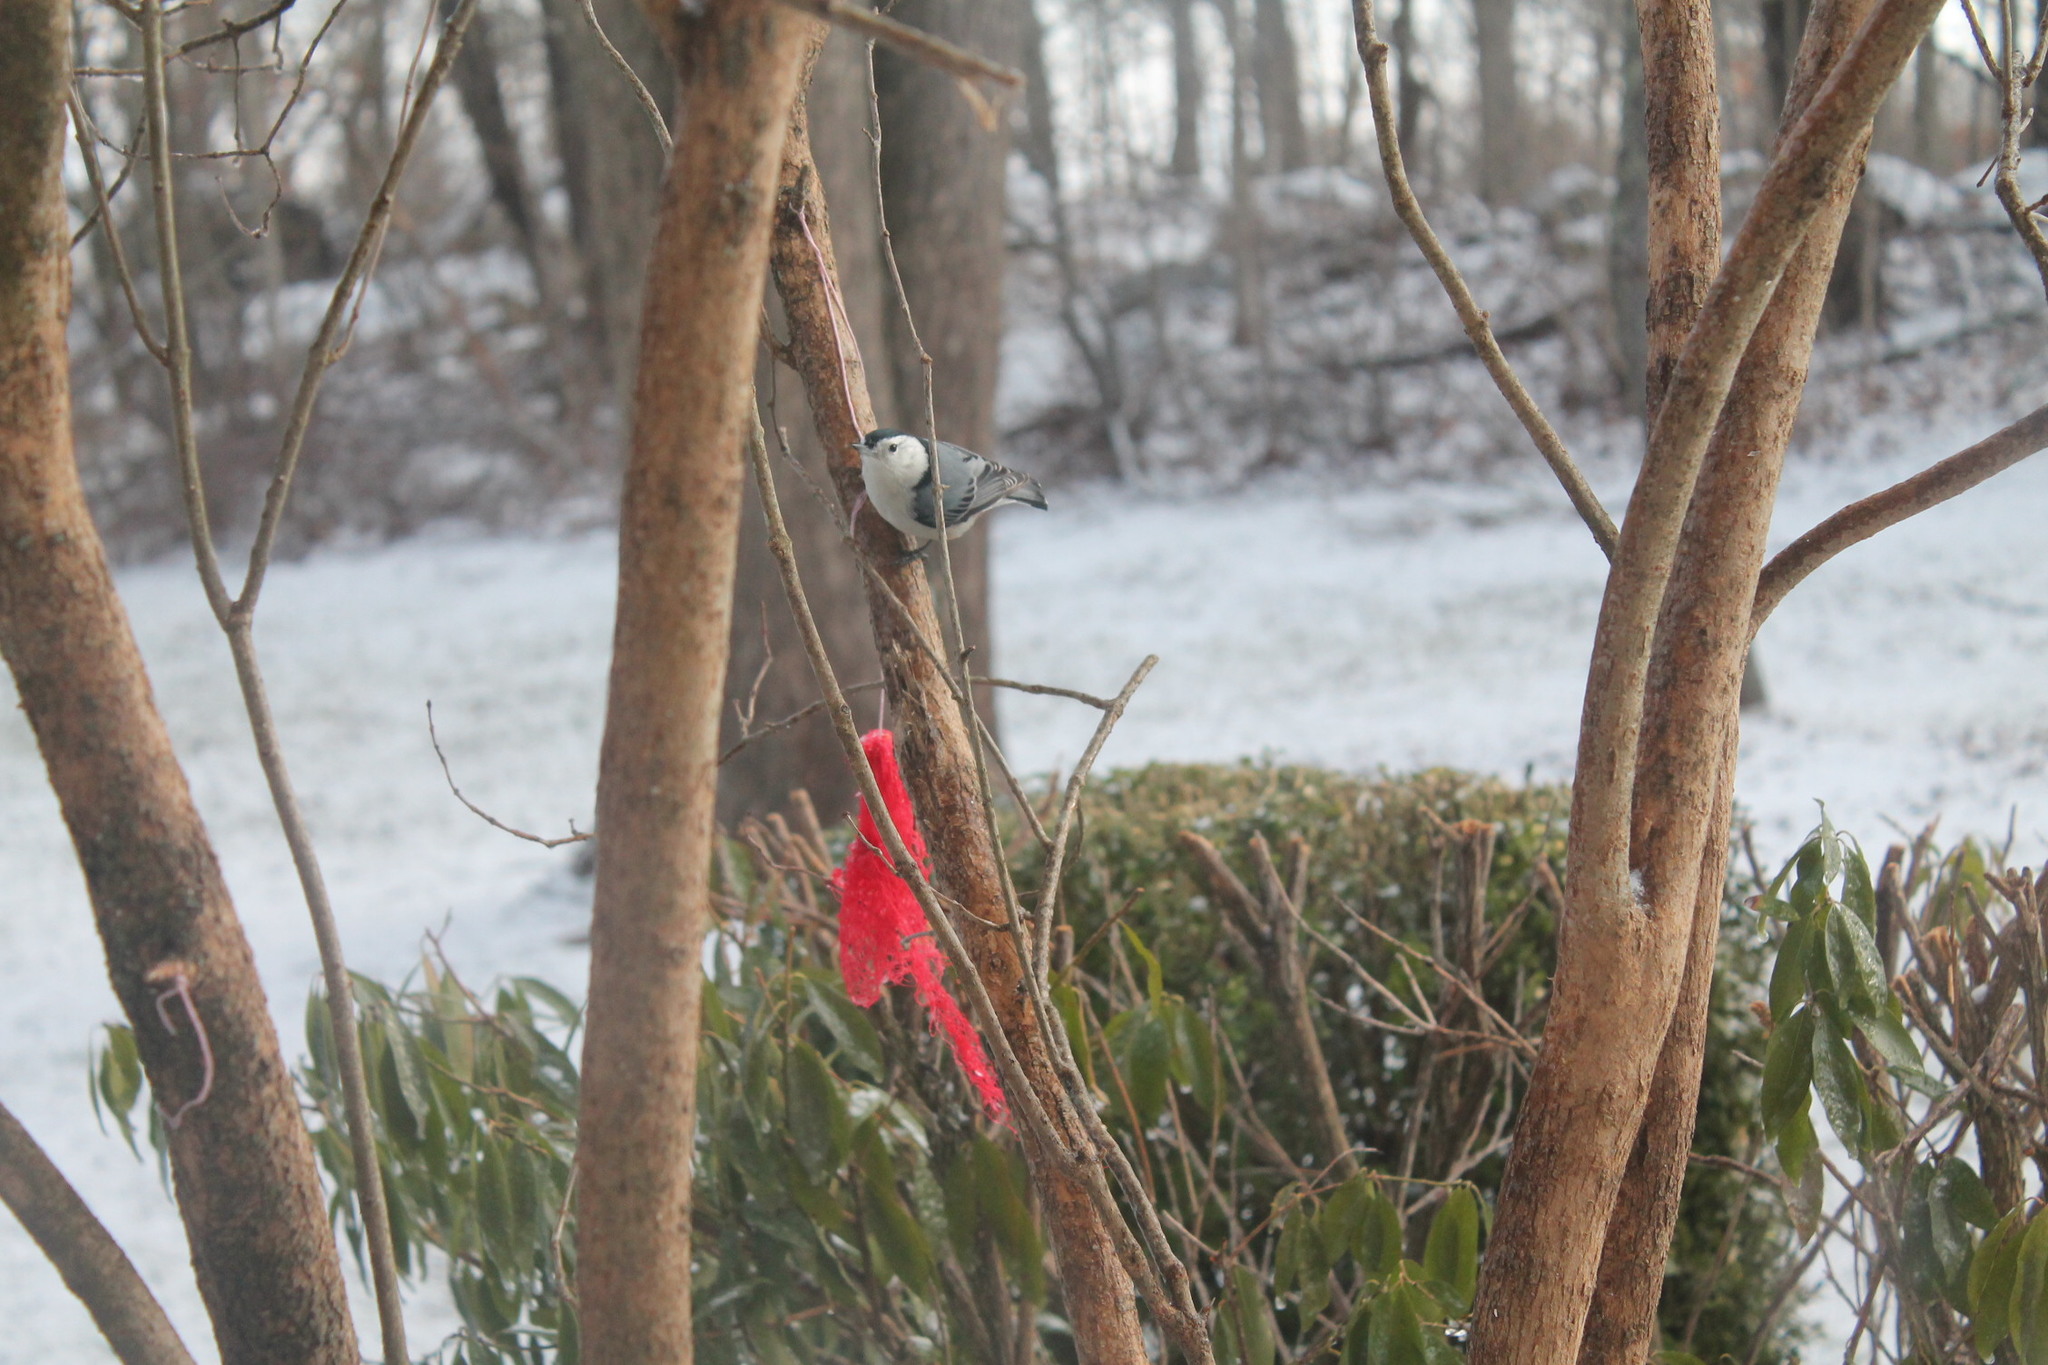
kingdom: Animalia
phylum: Chordata
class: Aves
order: Passeriformes
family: Sittidae
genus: Sitta
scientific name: Sitta carolinensis
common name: White-breasted nuthatch
